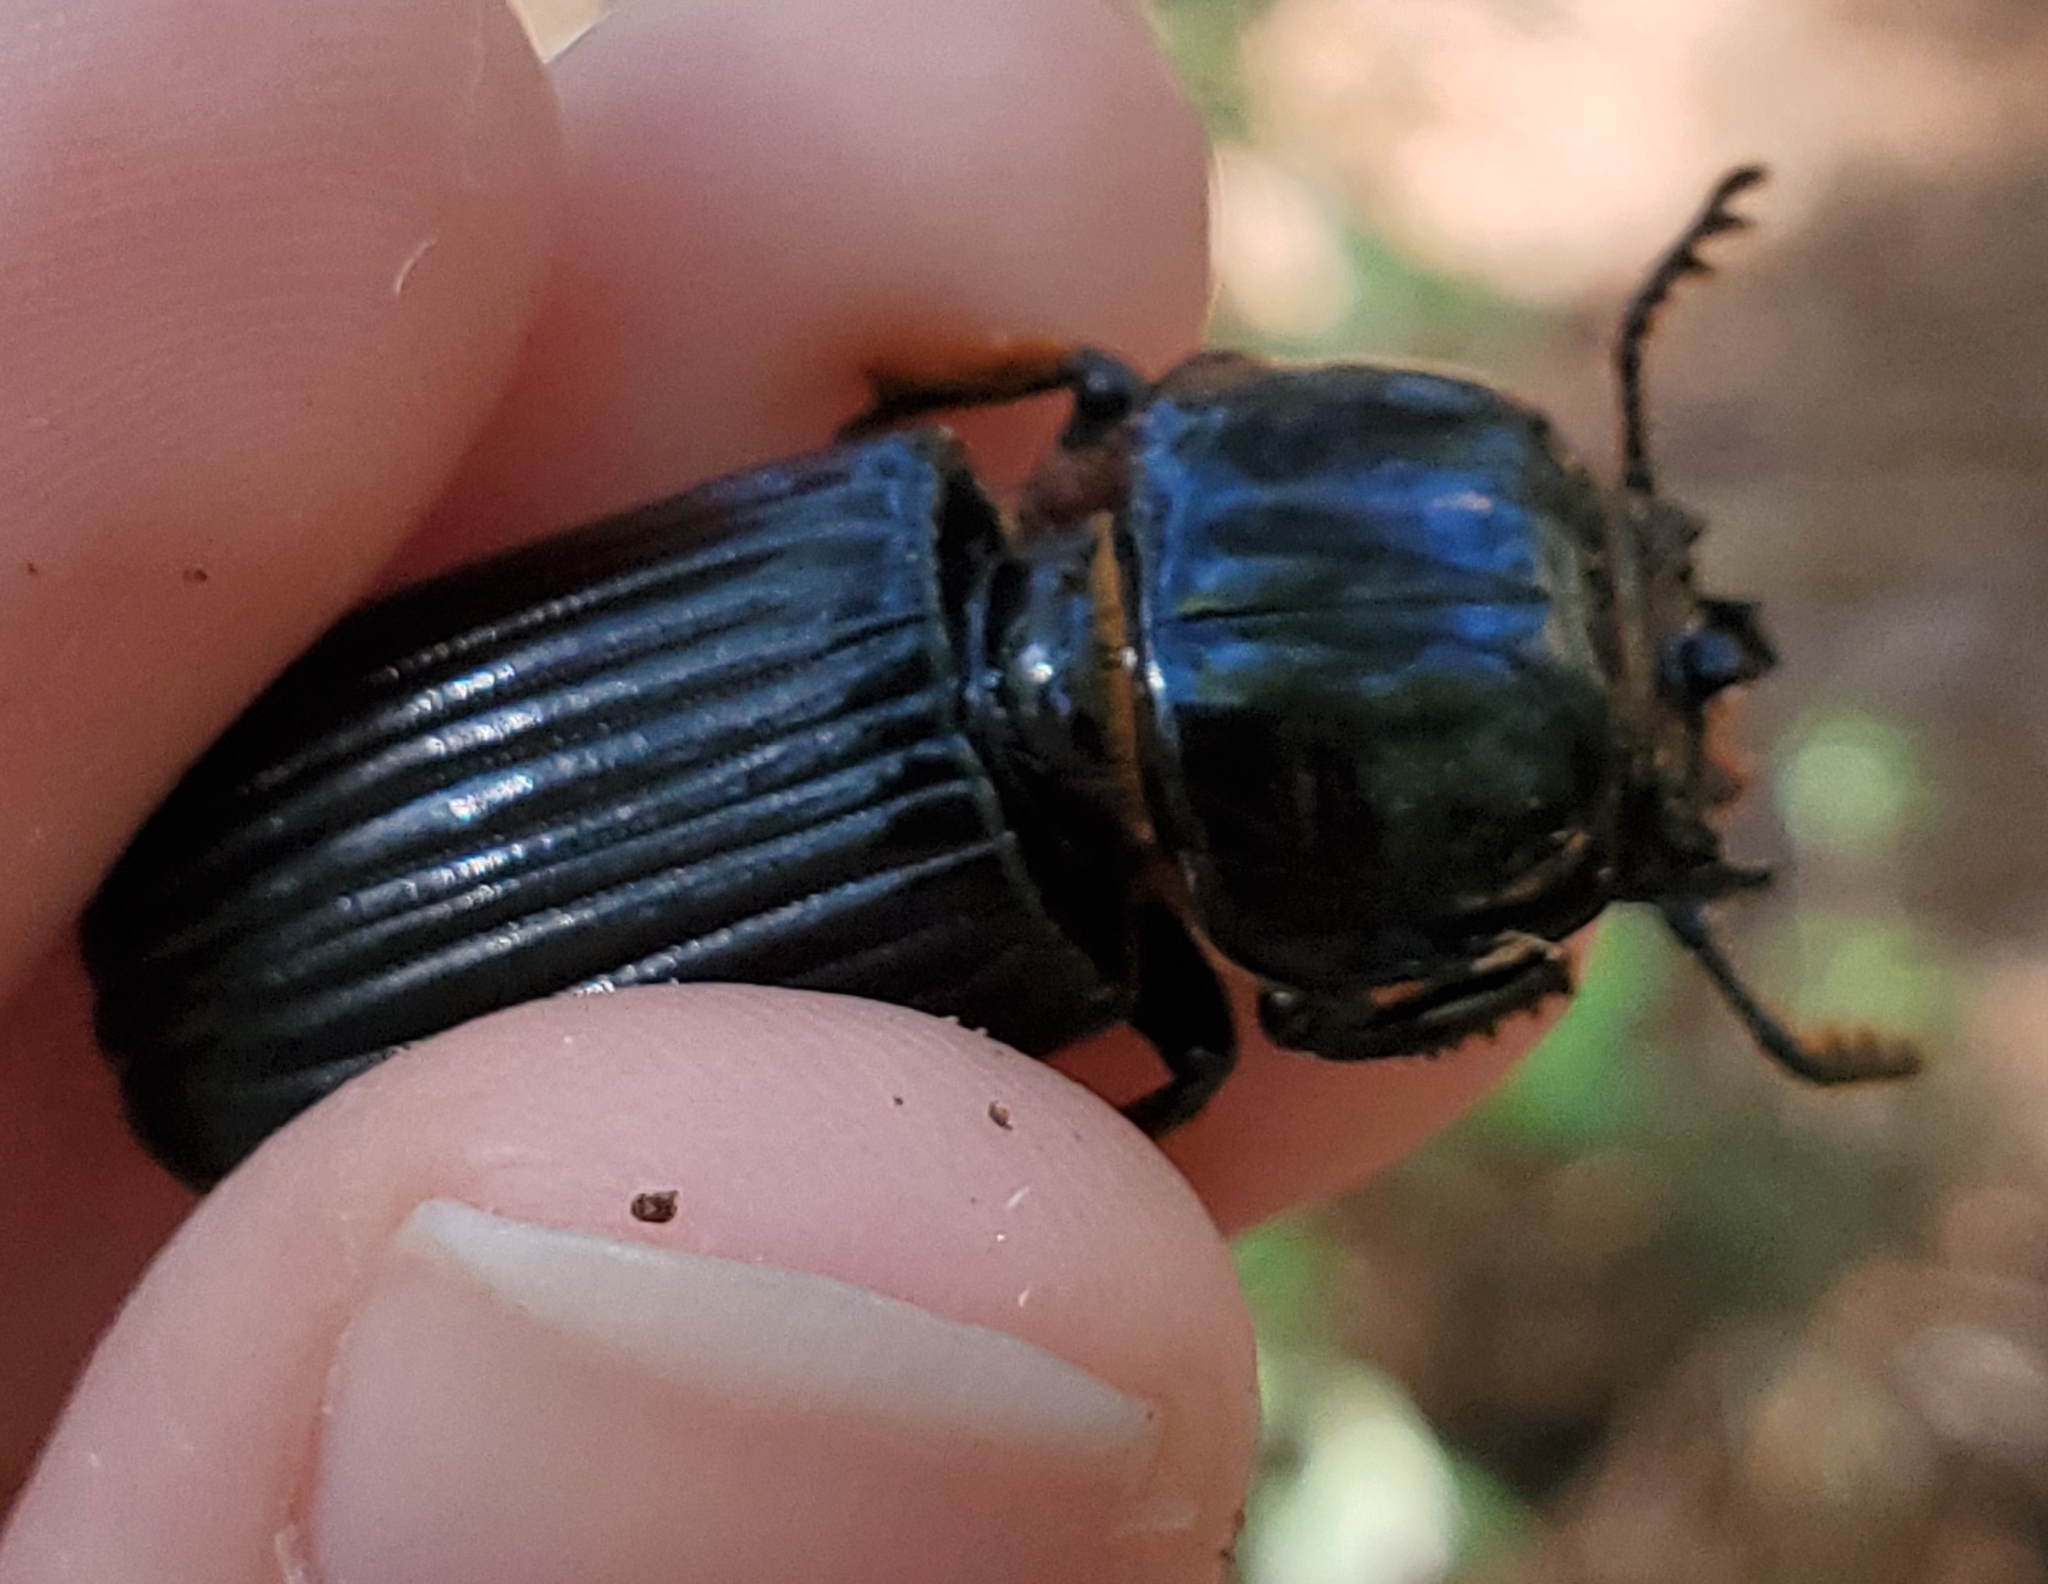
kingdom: Animalia
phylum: Arthropoda
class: Insecta
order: Coleoptera
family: Passalidae
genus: Odontotaenius
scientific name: Odontotaenius disjunctus
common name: Patent leather beetle
